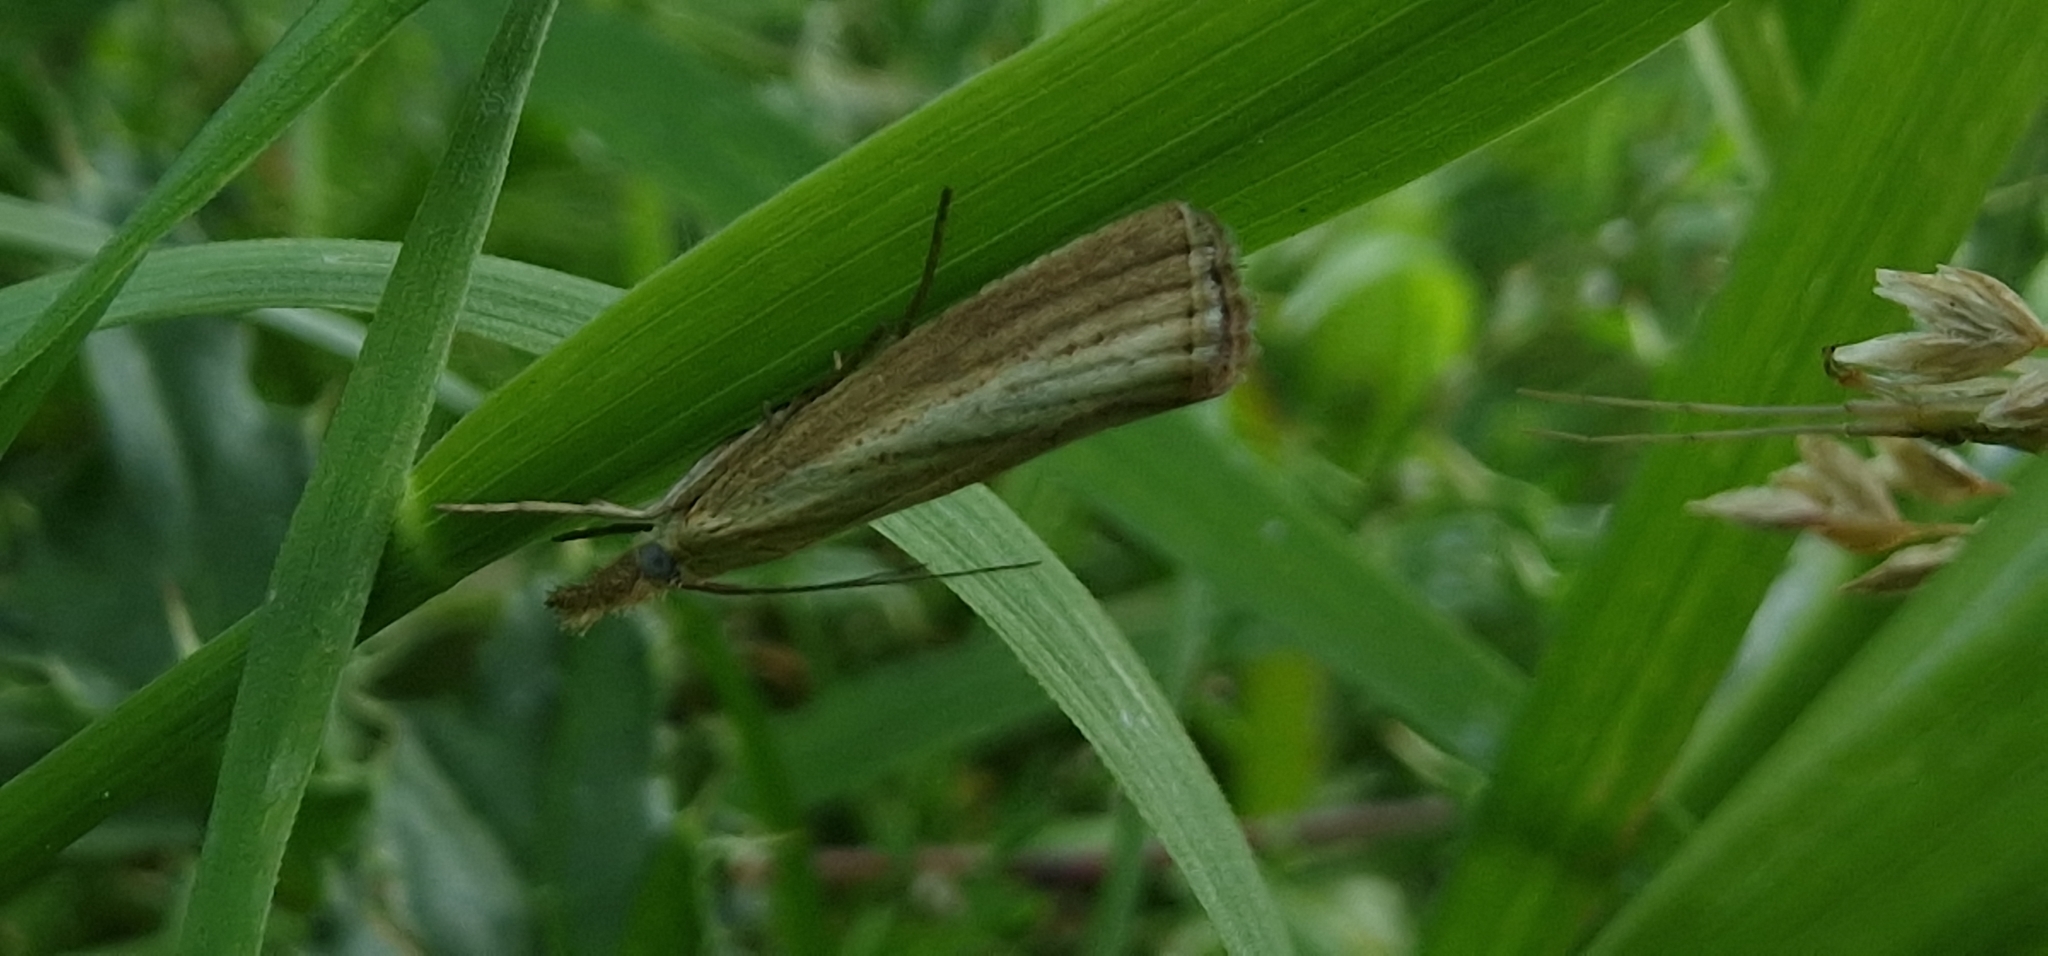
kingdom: Animalia
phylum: Arthropoda
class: Insecta
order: Lepidoptera
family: Crambidae
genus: Agriphila
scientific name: Agriphila straminella
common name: Straw grass-veneer
